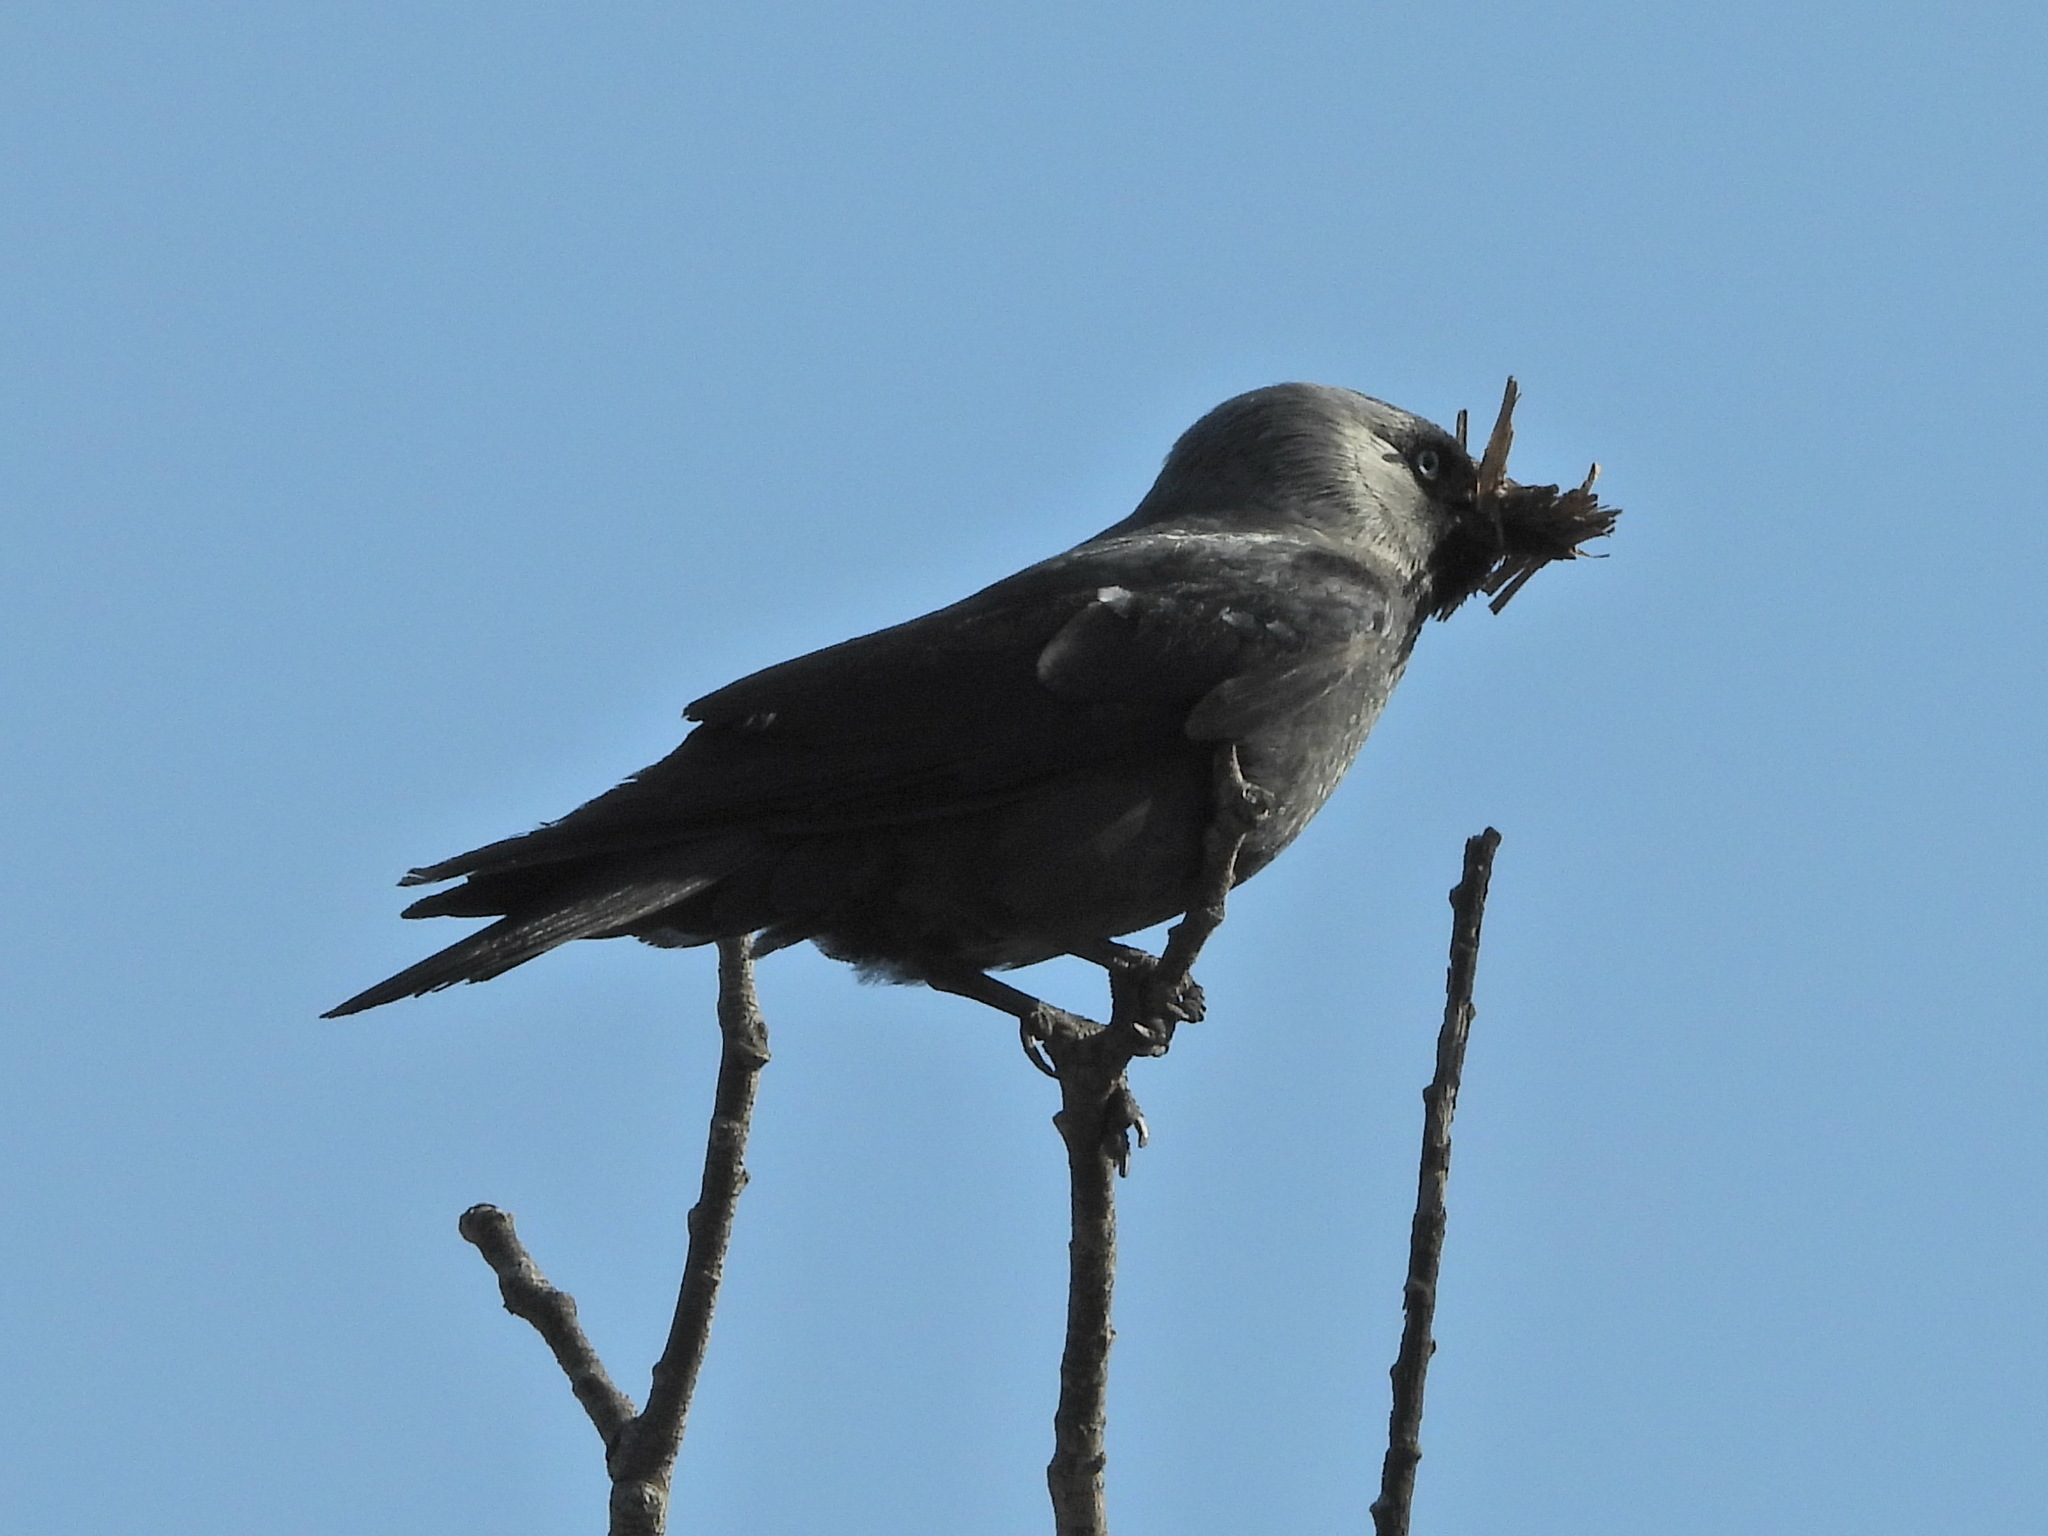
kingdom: Animalia
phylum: Chordata
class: Aves
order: Passeriformes
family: Corvidae
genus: Coloeus
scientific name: Coloeus monedula
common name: Western jackdaw
